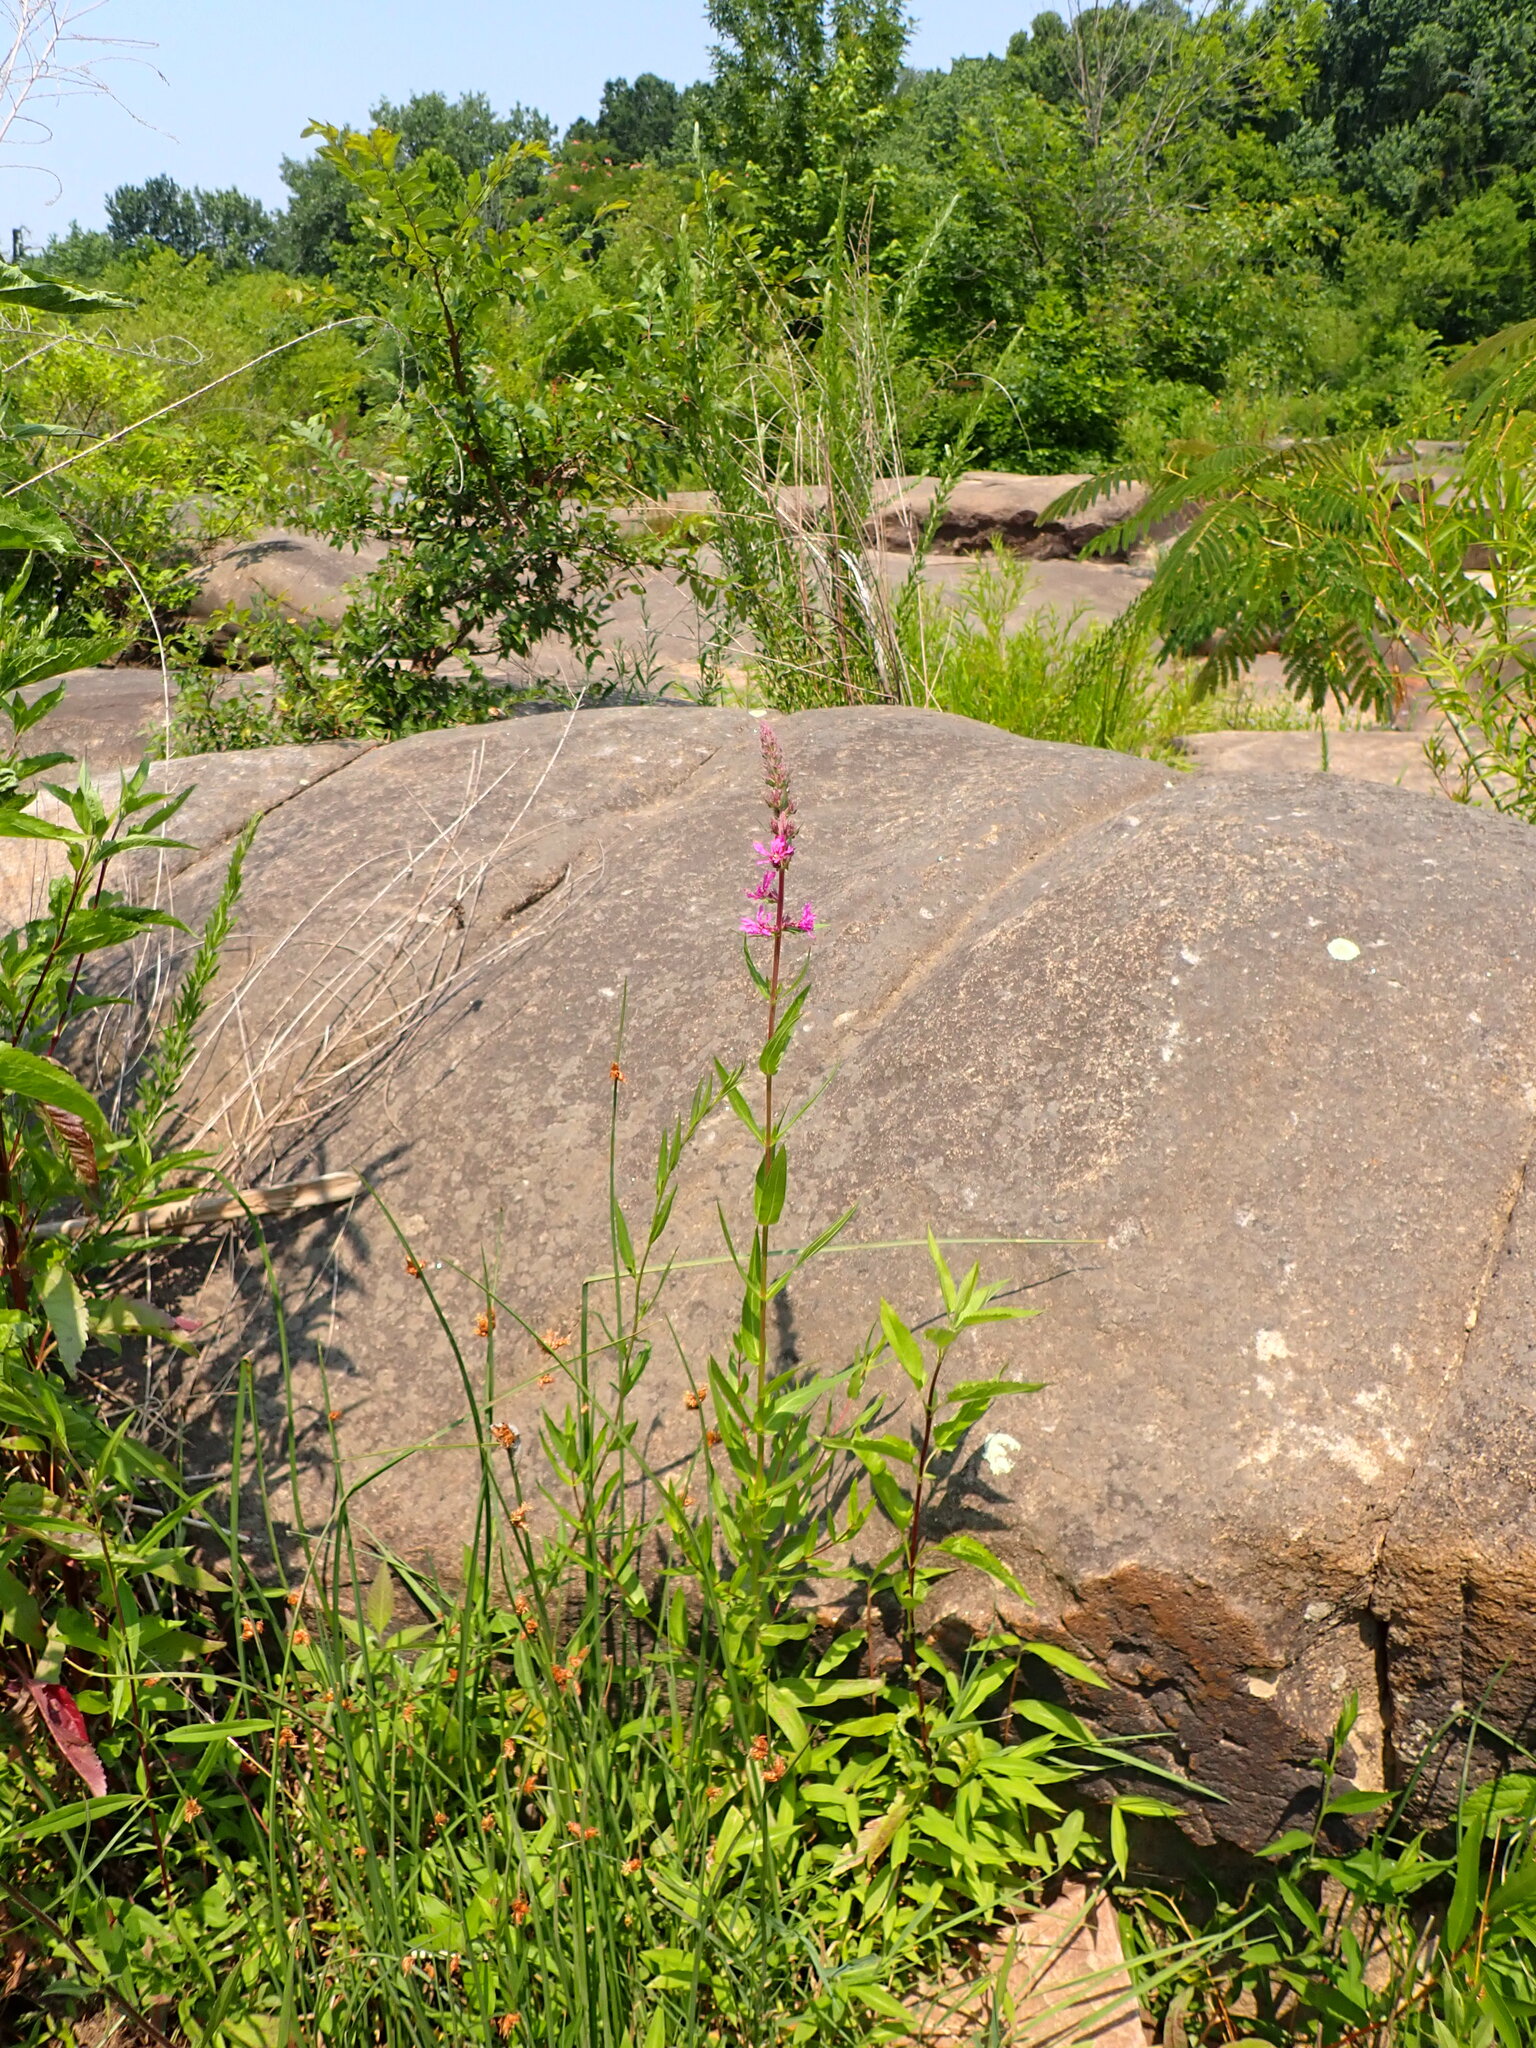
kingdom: Plantae
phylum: Tracheophyta
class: Magnoliopsida
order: Myrtales
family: Lythraceae
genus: Lythrum
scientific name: Lythrum salicaria
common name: Purple loosestrife
